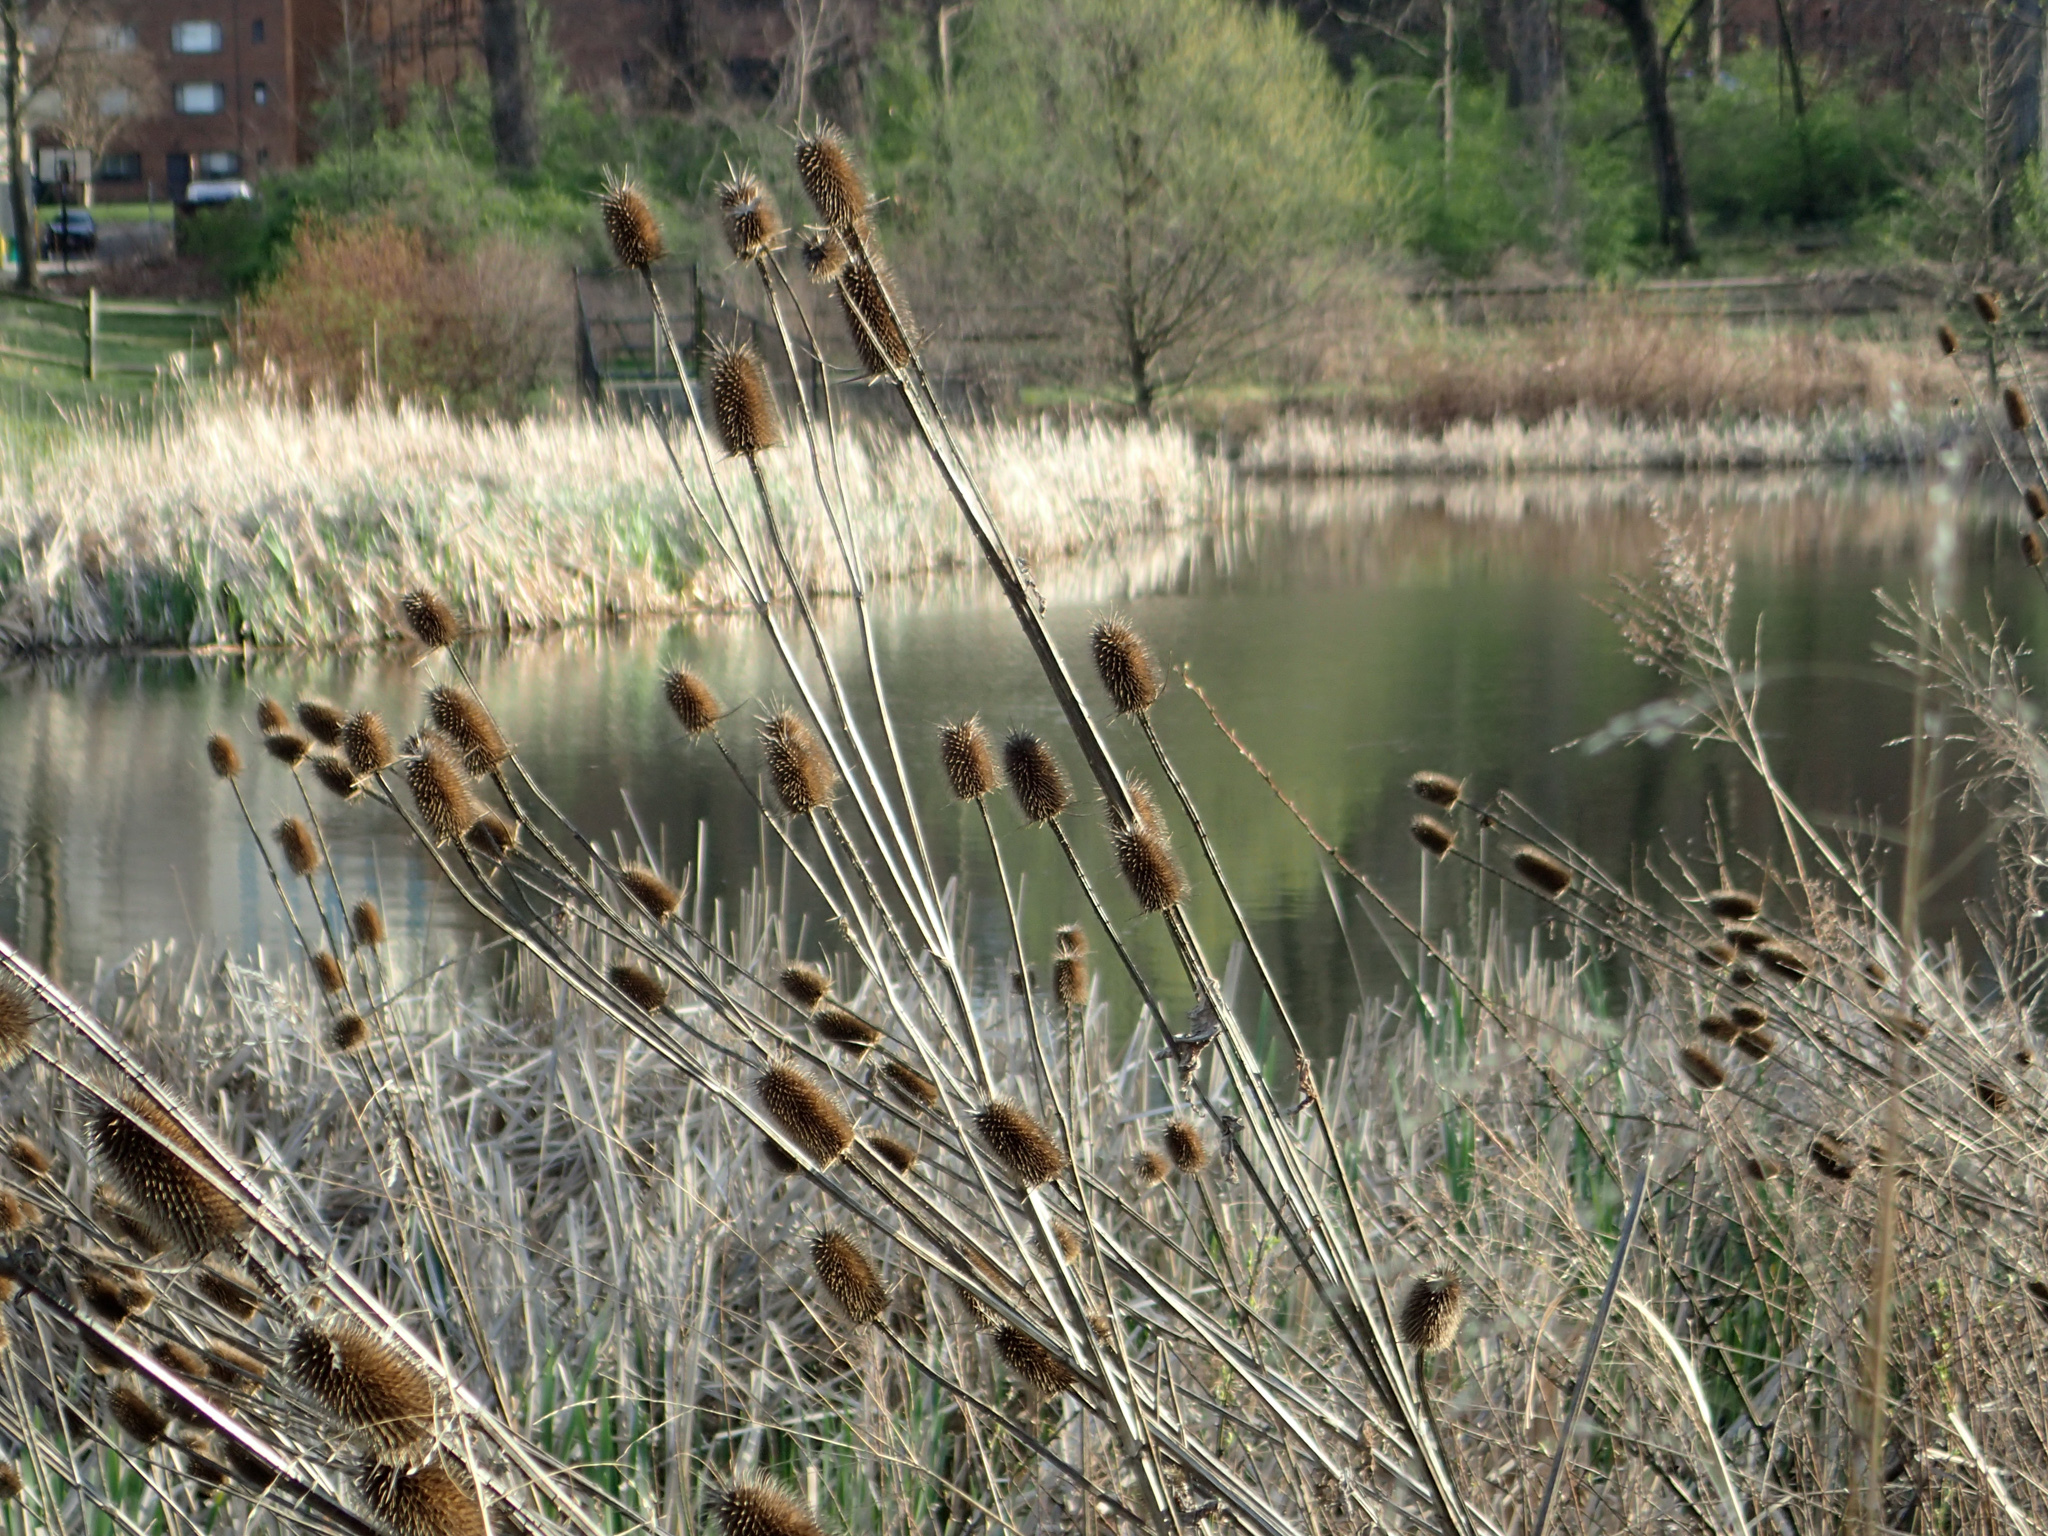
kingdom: Plantae
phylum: Tracheophyta
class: Magnoliopsida
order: Dipsacales
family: Caprifoliaceae
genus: Dipsacus
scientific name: Dipsacus laciniatus
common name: Cut-leaved teasel
